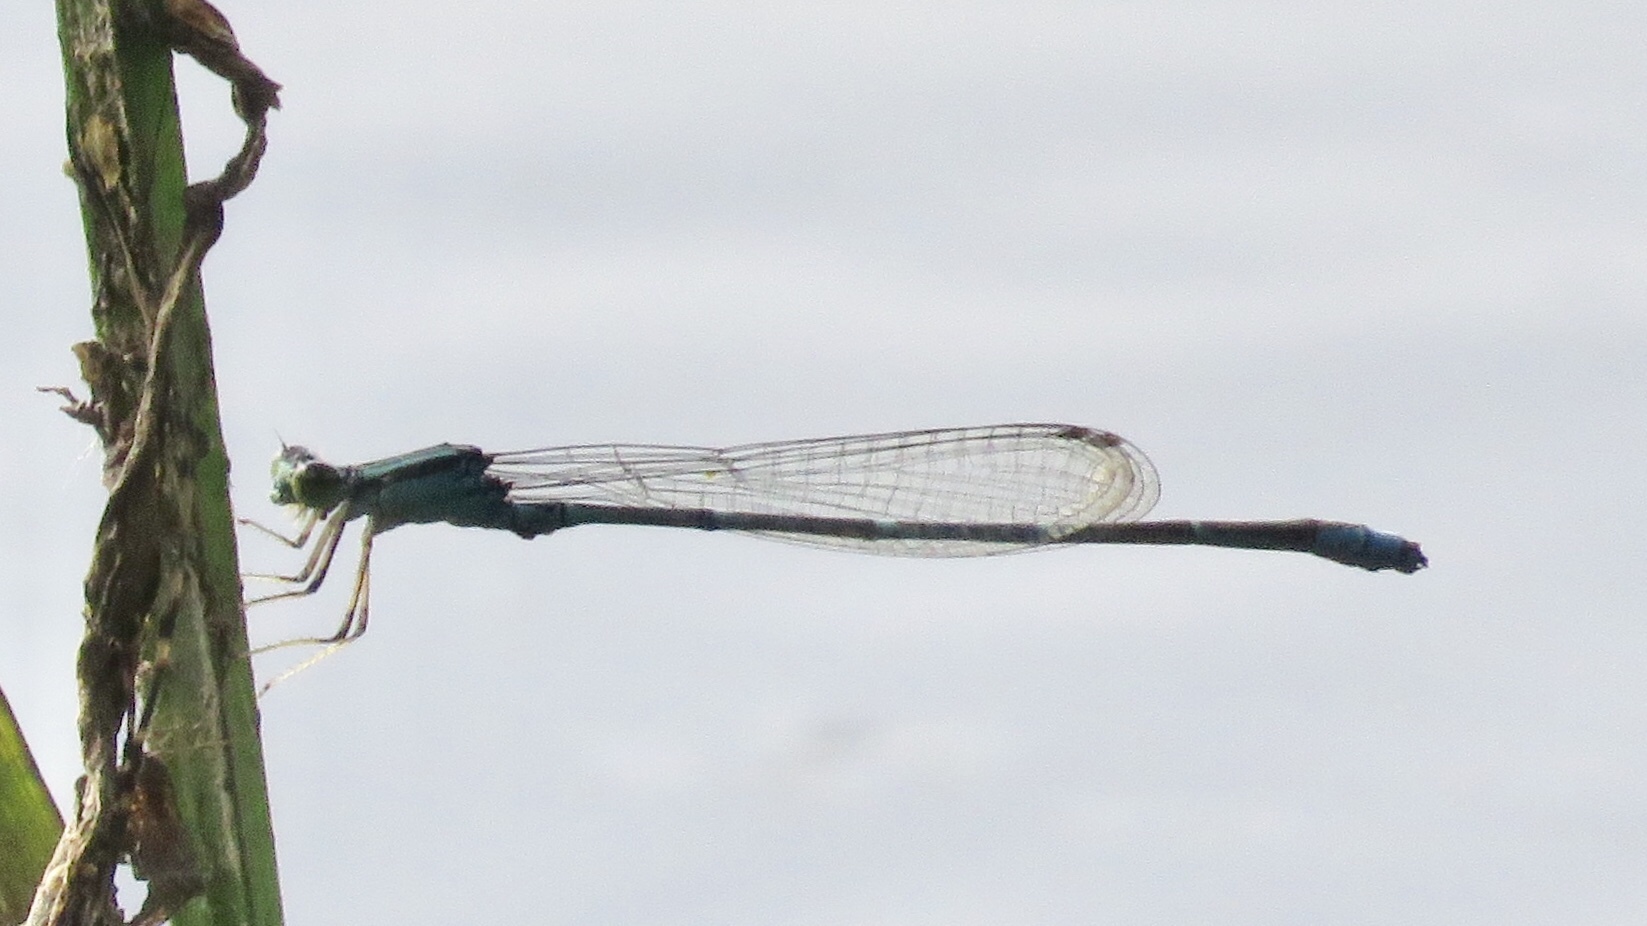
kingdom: Animalia
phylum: Arthropoda
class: Insecta
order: Odonata
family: Coenagrionidae
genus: Enallagma
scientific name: Enallagma exsulans
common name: Stream bluet
